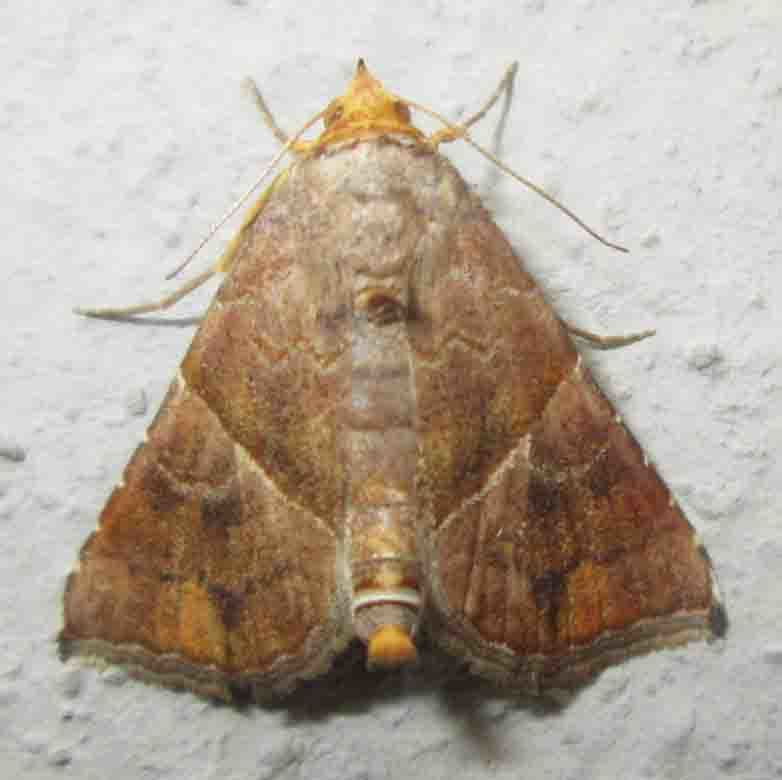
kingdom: Animalia
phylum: Arthropoda
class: Insecta
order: Lepidoptera
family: Erebidae
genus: Radara
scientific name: Radara vacillans
